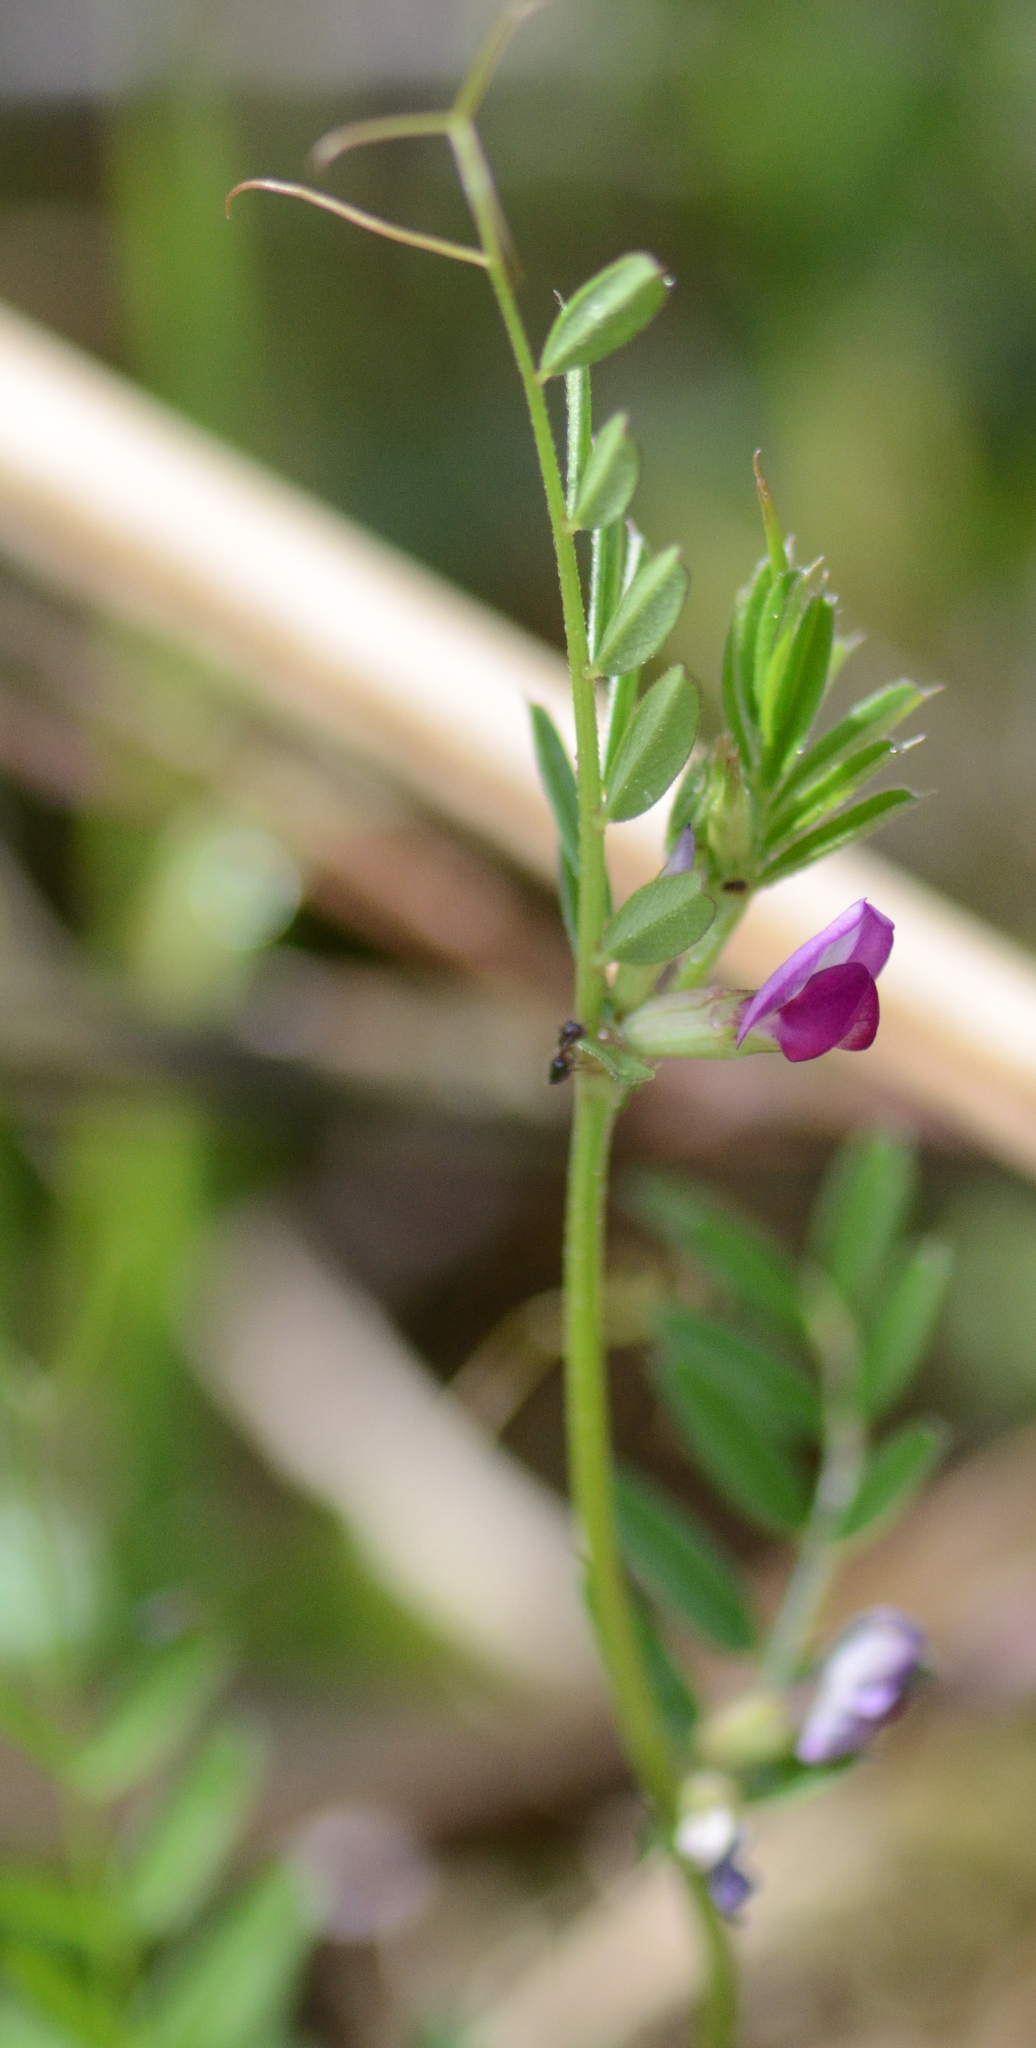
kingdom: Plantae
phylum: Tracheophyta
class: Magnoliopsida
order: Fabales
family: Fabaceae
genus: Vicia
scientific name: Vicia sativa
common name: Garden vetch
